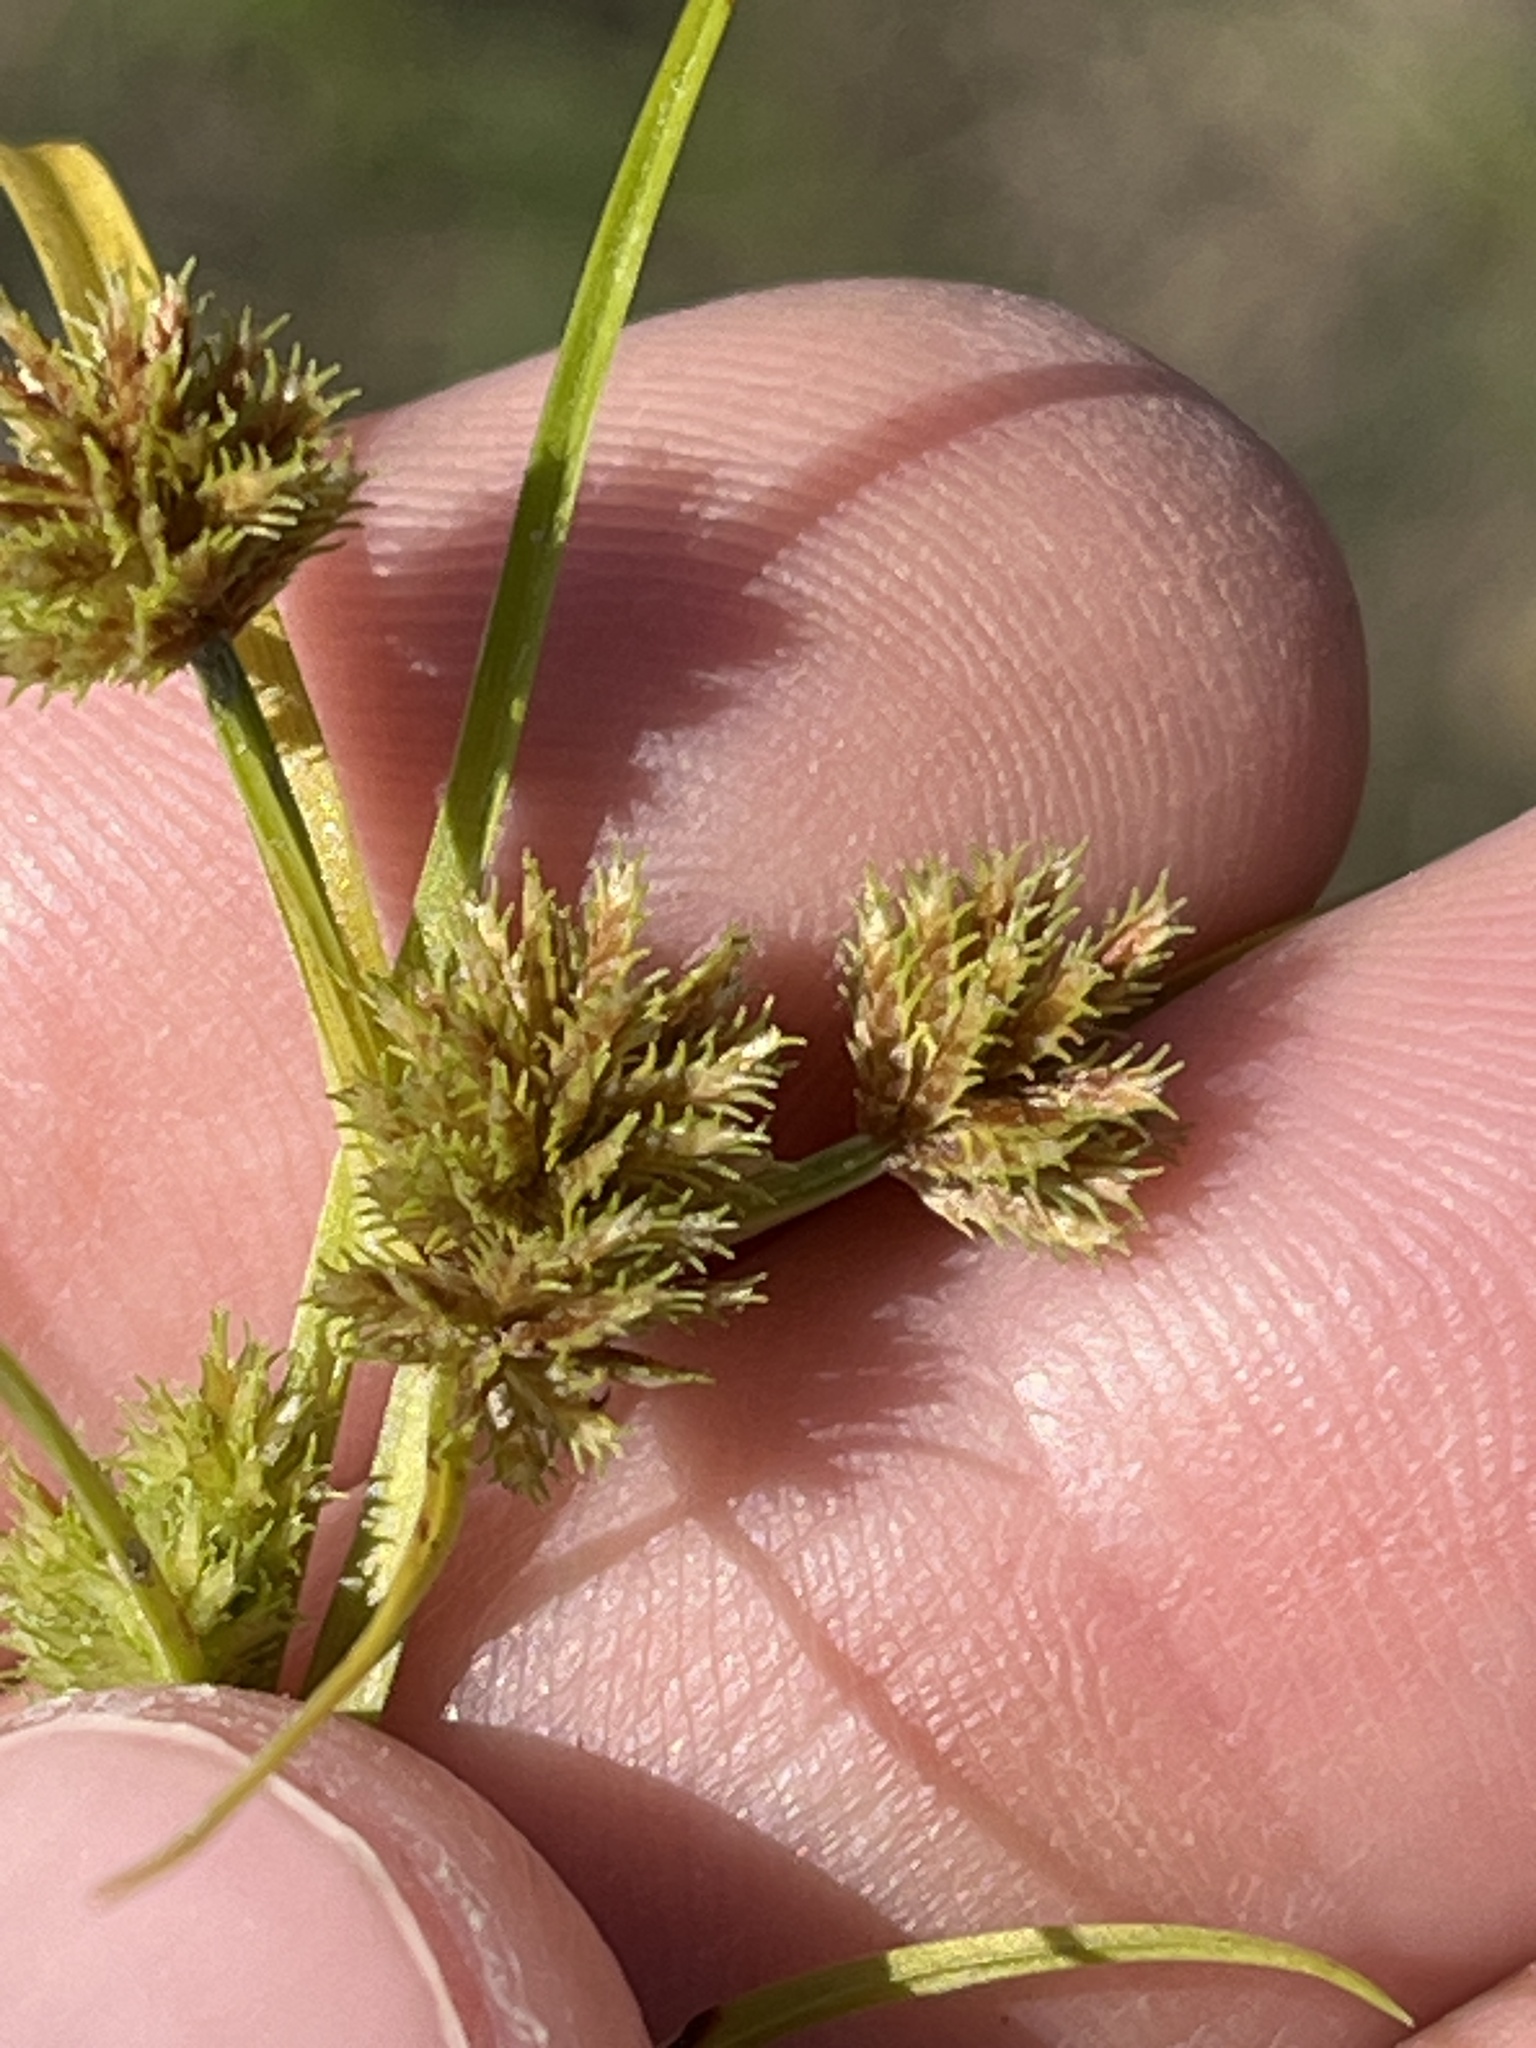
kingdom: Plantae
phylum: Tracheophyta
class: Liliopsida
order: Poales
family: Cyperaceae
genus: Cyperus
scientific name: Cyperus squarrosus
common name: Awned cyperus
